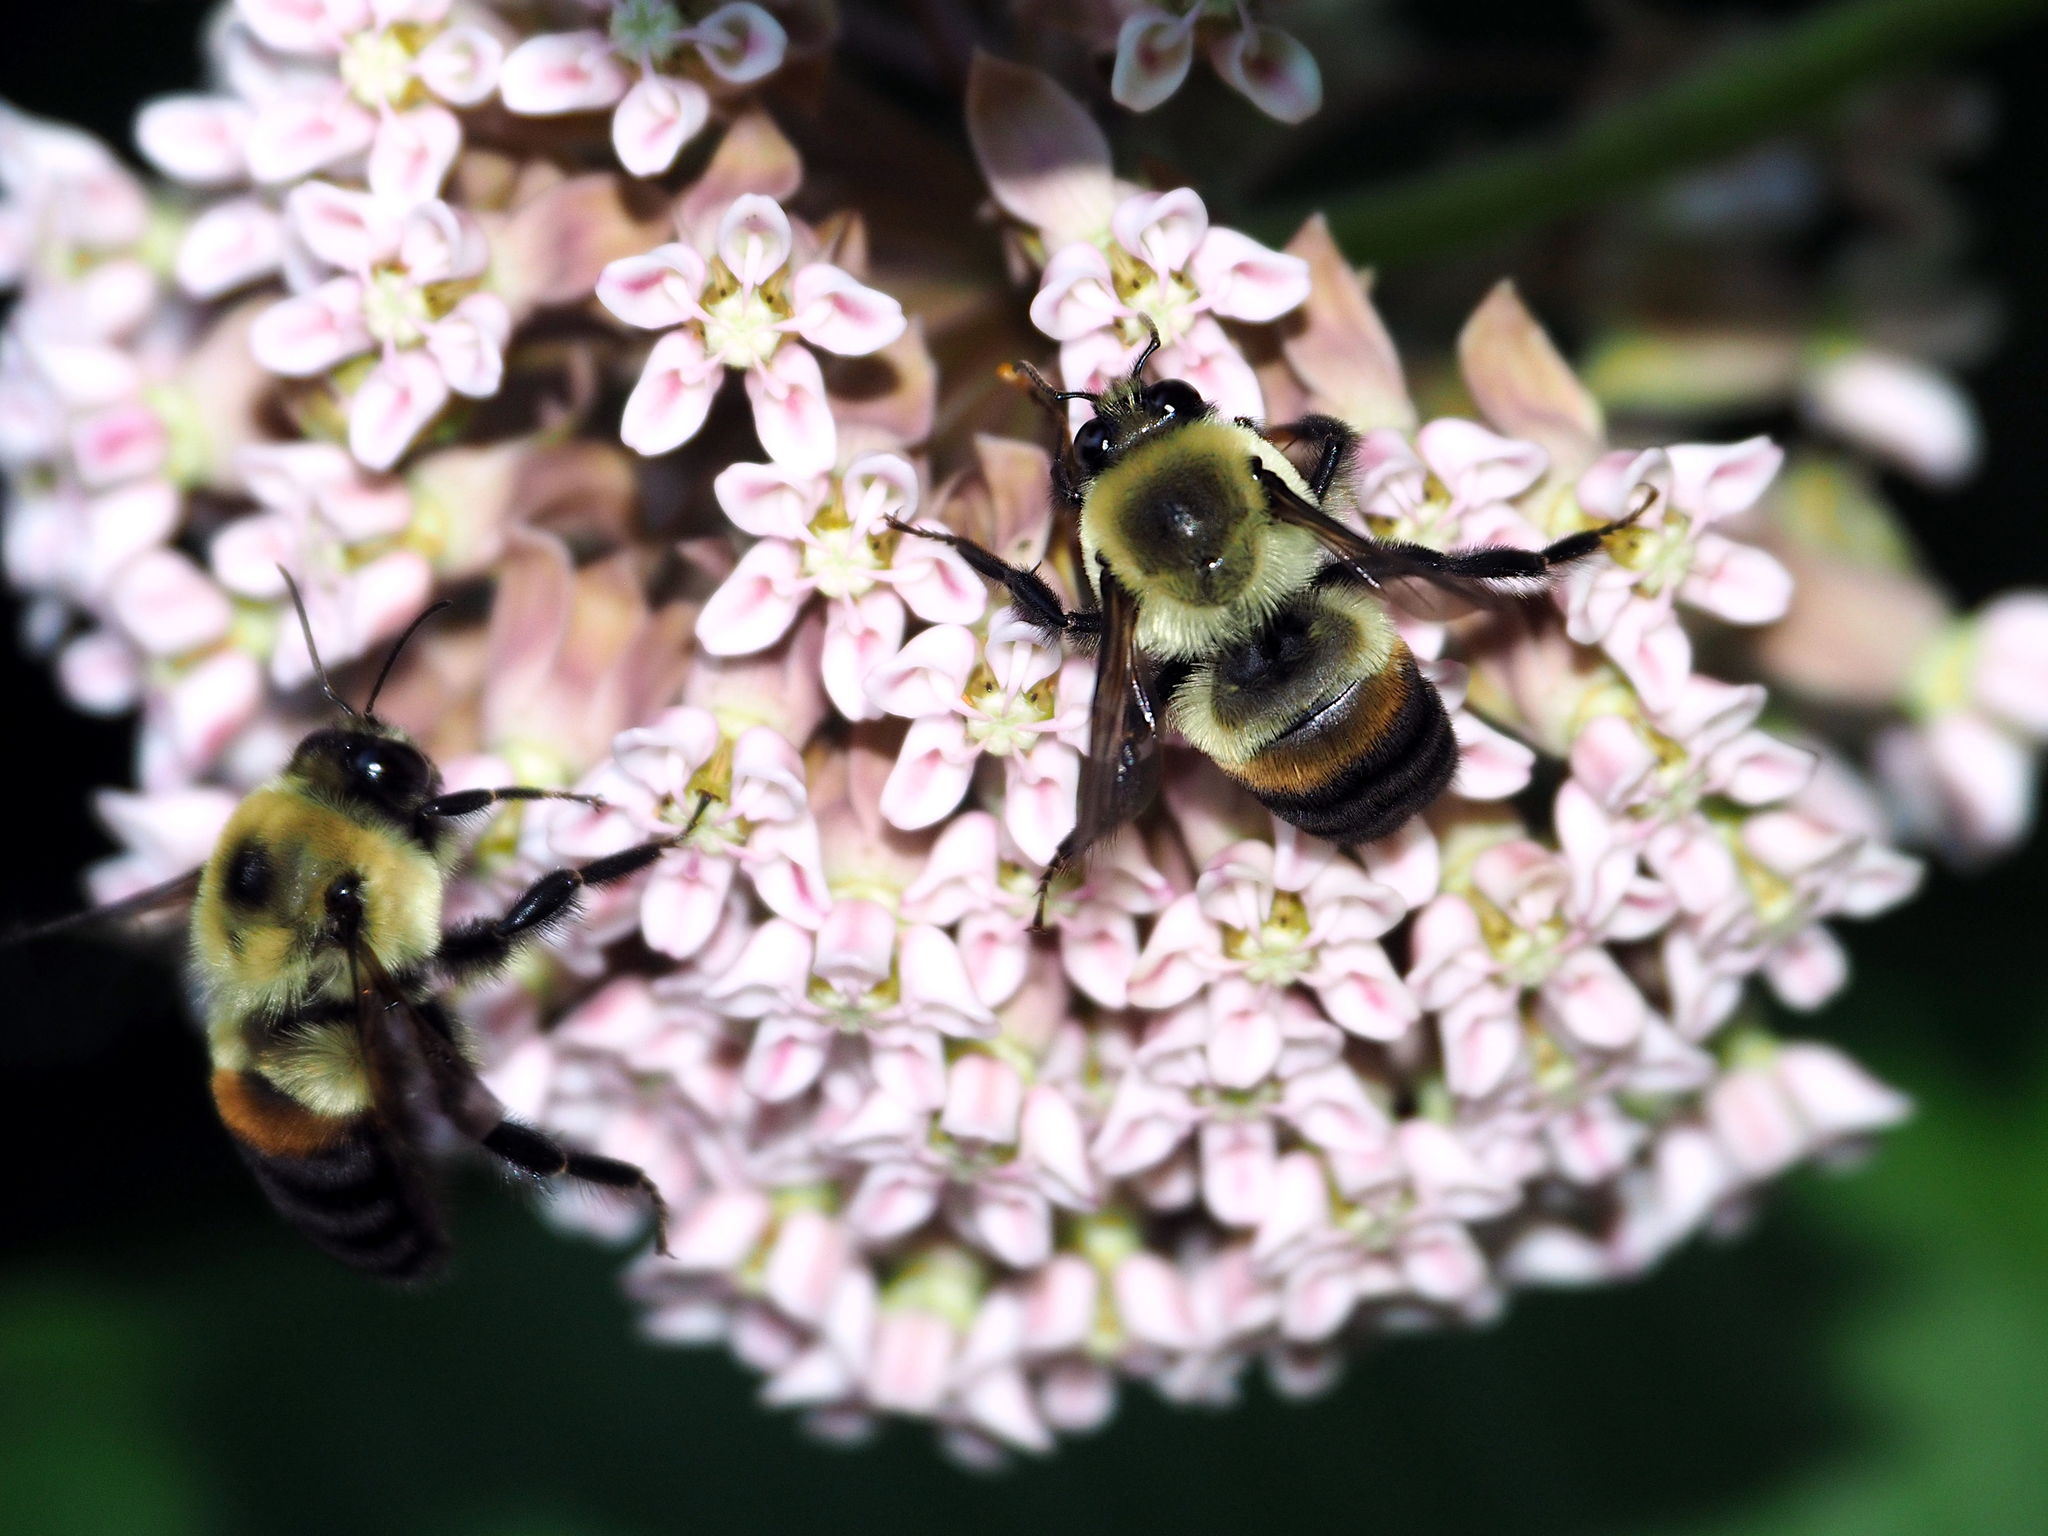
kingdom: Animalia
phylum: Arthropoda
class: Insecta
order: Hymenoptera
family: Apidae
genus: Bombus
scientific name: Bombus griseocollis
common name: Brown-belted bumble bee
